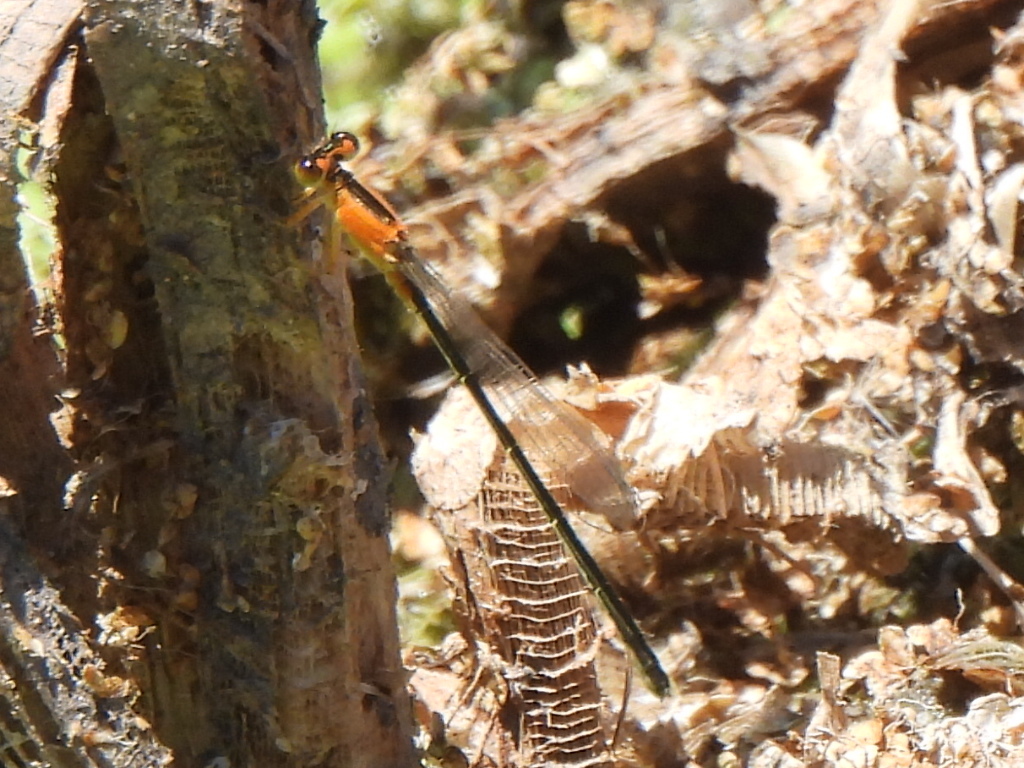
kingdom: Animalia
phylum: Arthropoda
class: Insecta
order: Odonata
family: Coenagrionidae
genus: Ischnura
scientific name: Ischnura ramburii
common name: Rambur's forktail
